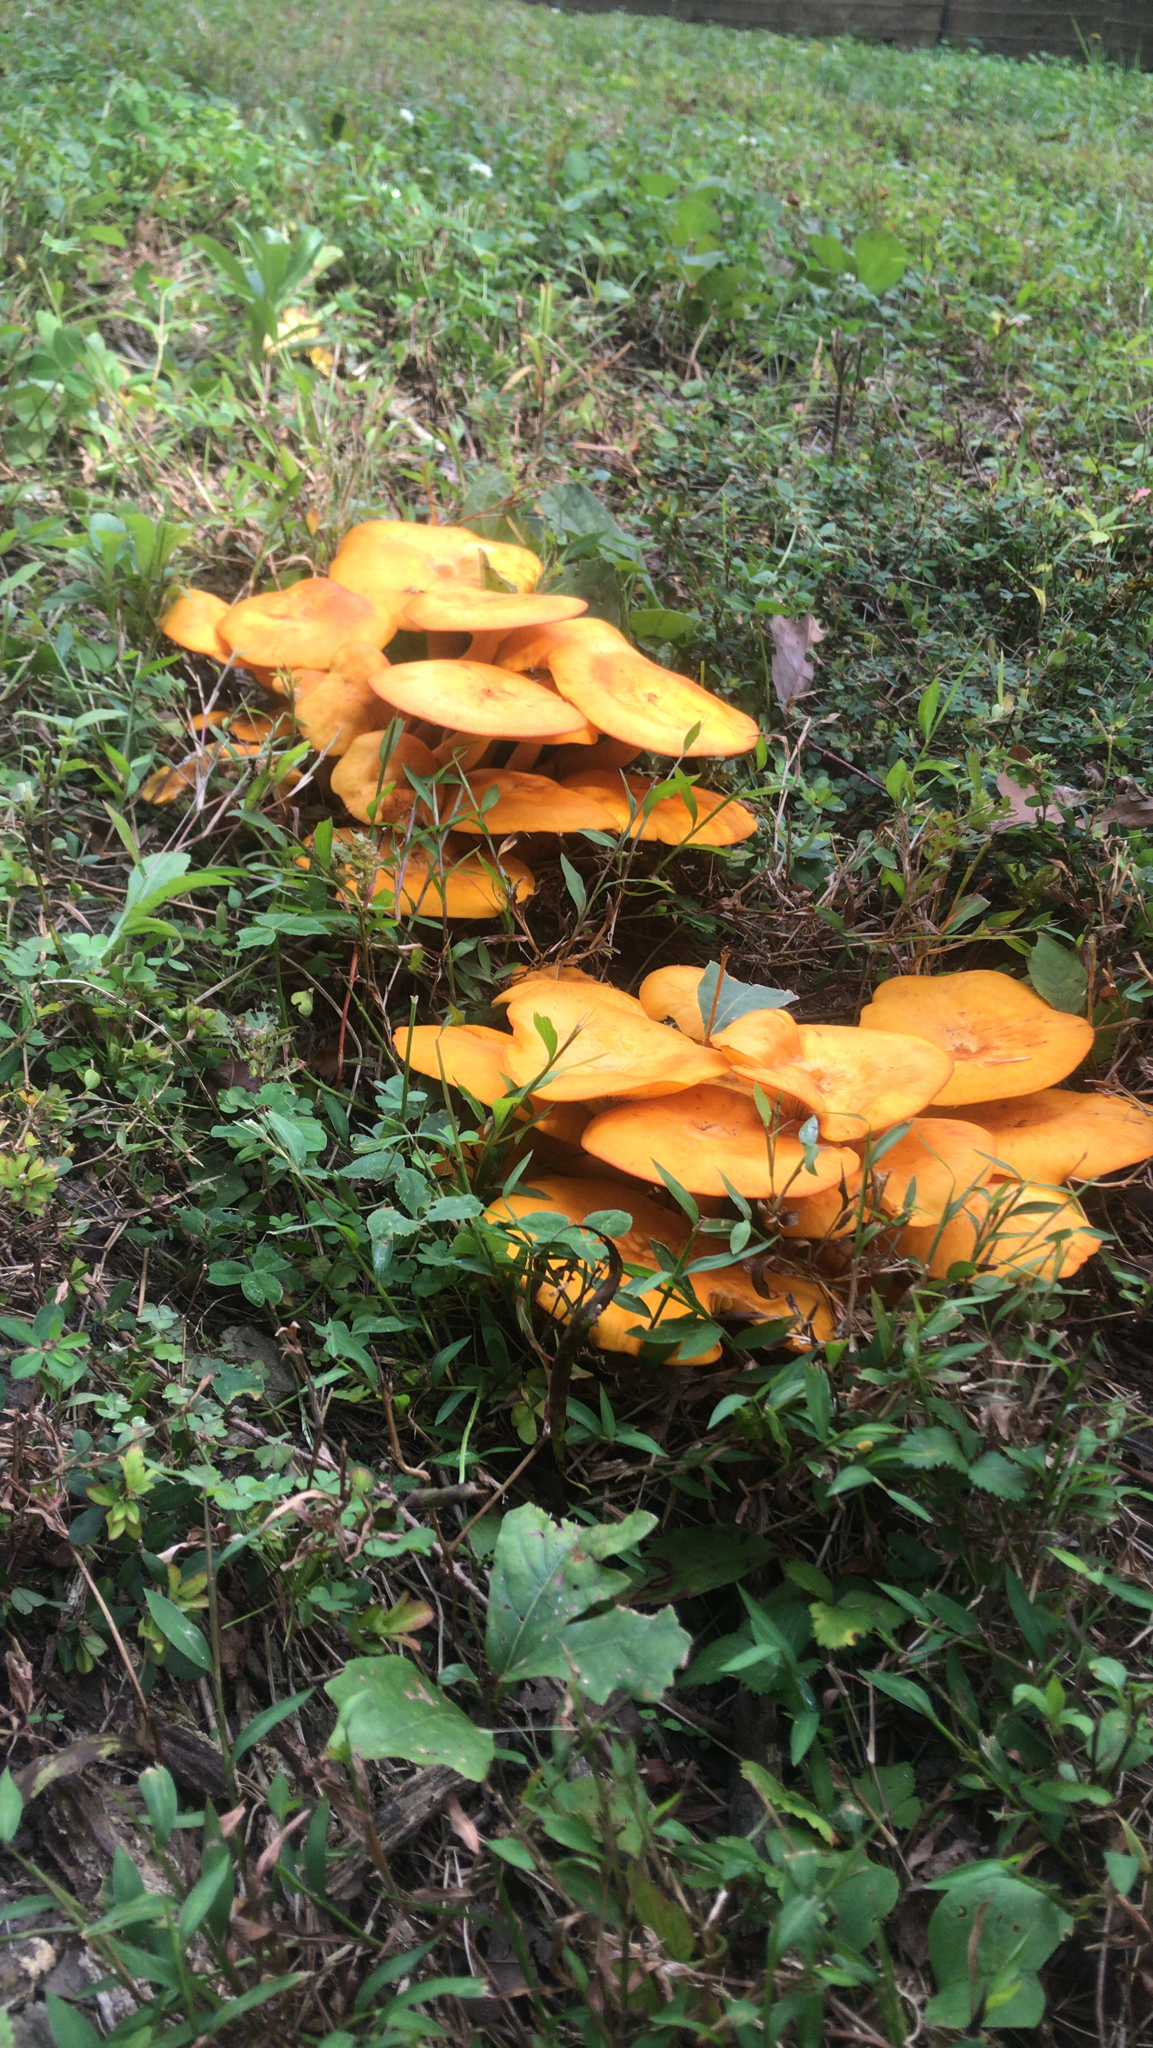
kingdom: Fungi
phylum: Basidiomycota
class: Agaricomycetes
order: Agaricales
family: Omphalotaceae
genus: Omphalotus
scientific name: Omphalotus illudens
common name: Jack o lantern
